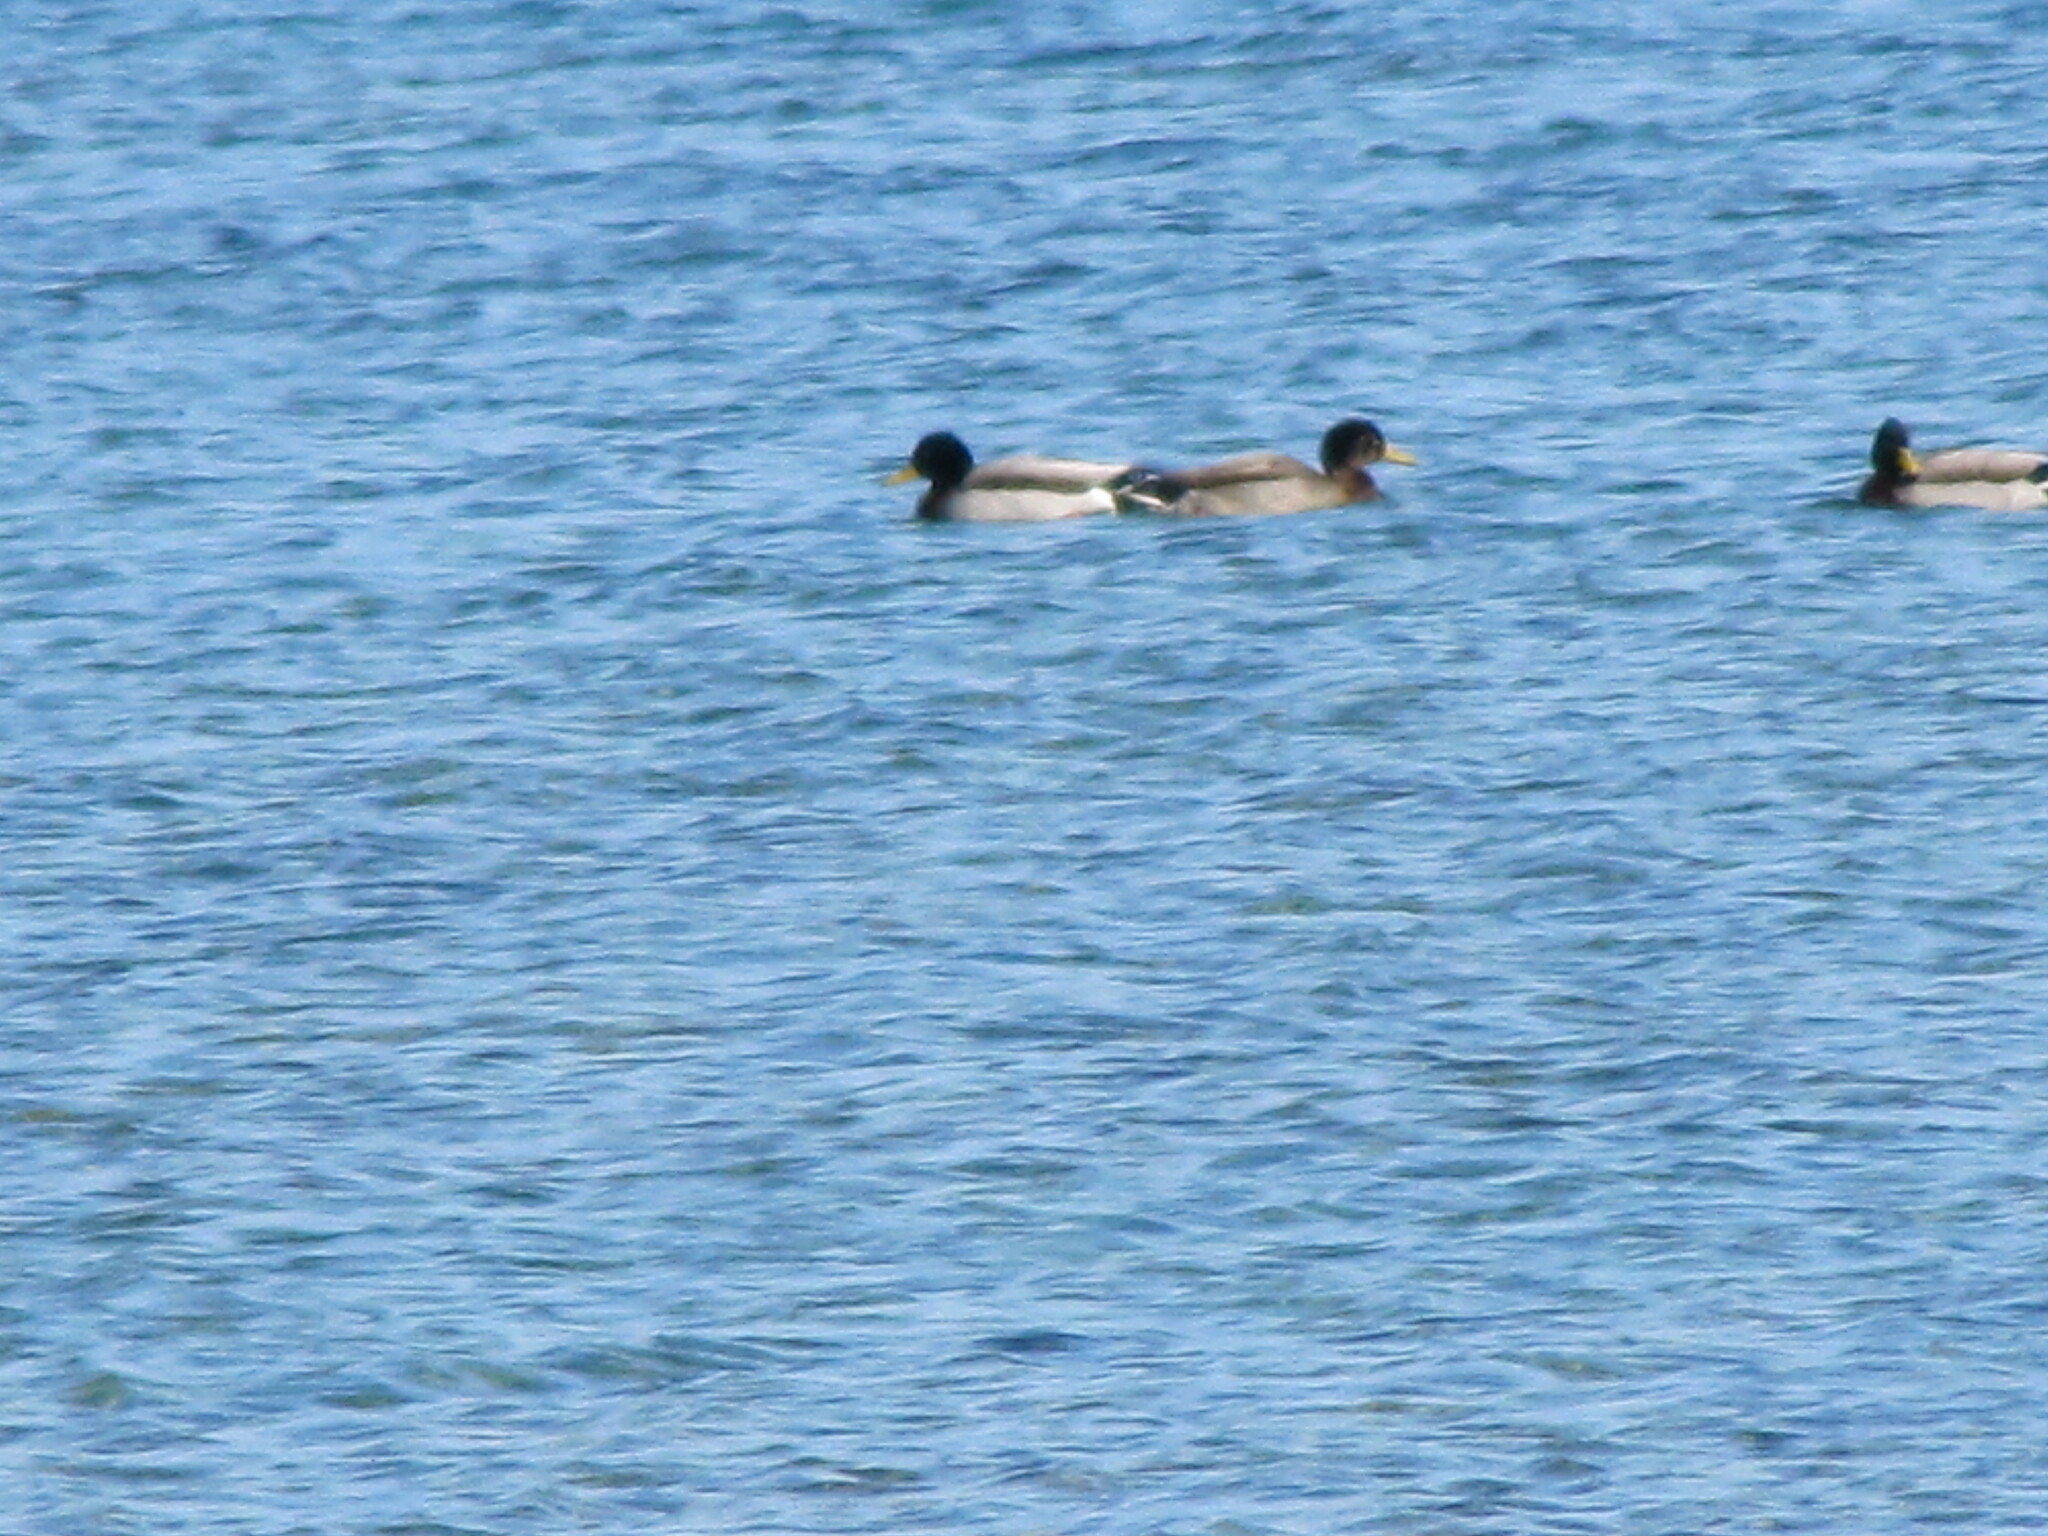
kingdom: Animalia
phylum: Chordata
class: Aves
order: Anseriformes
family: Anatidae
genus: Anas
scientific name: Anas
